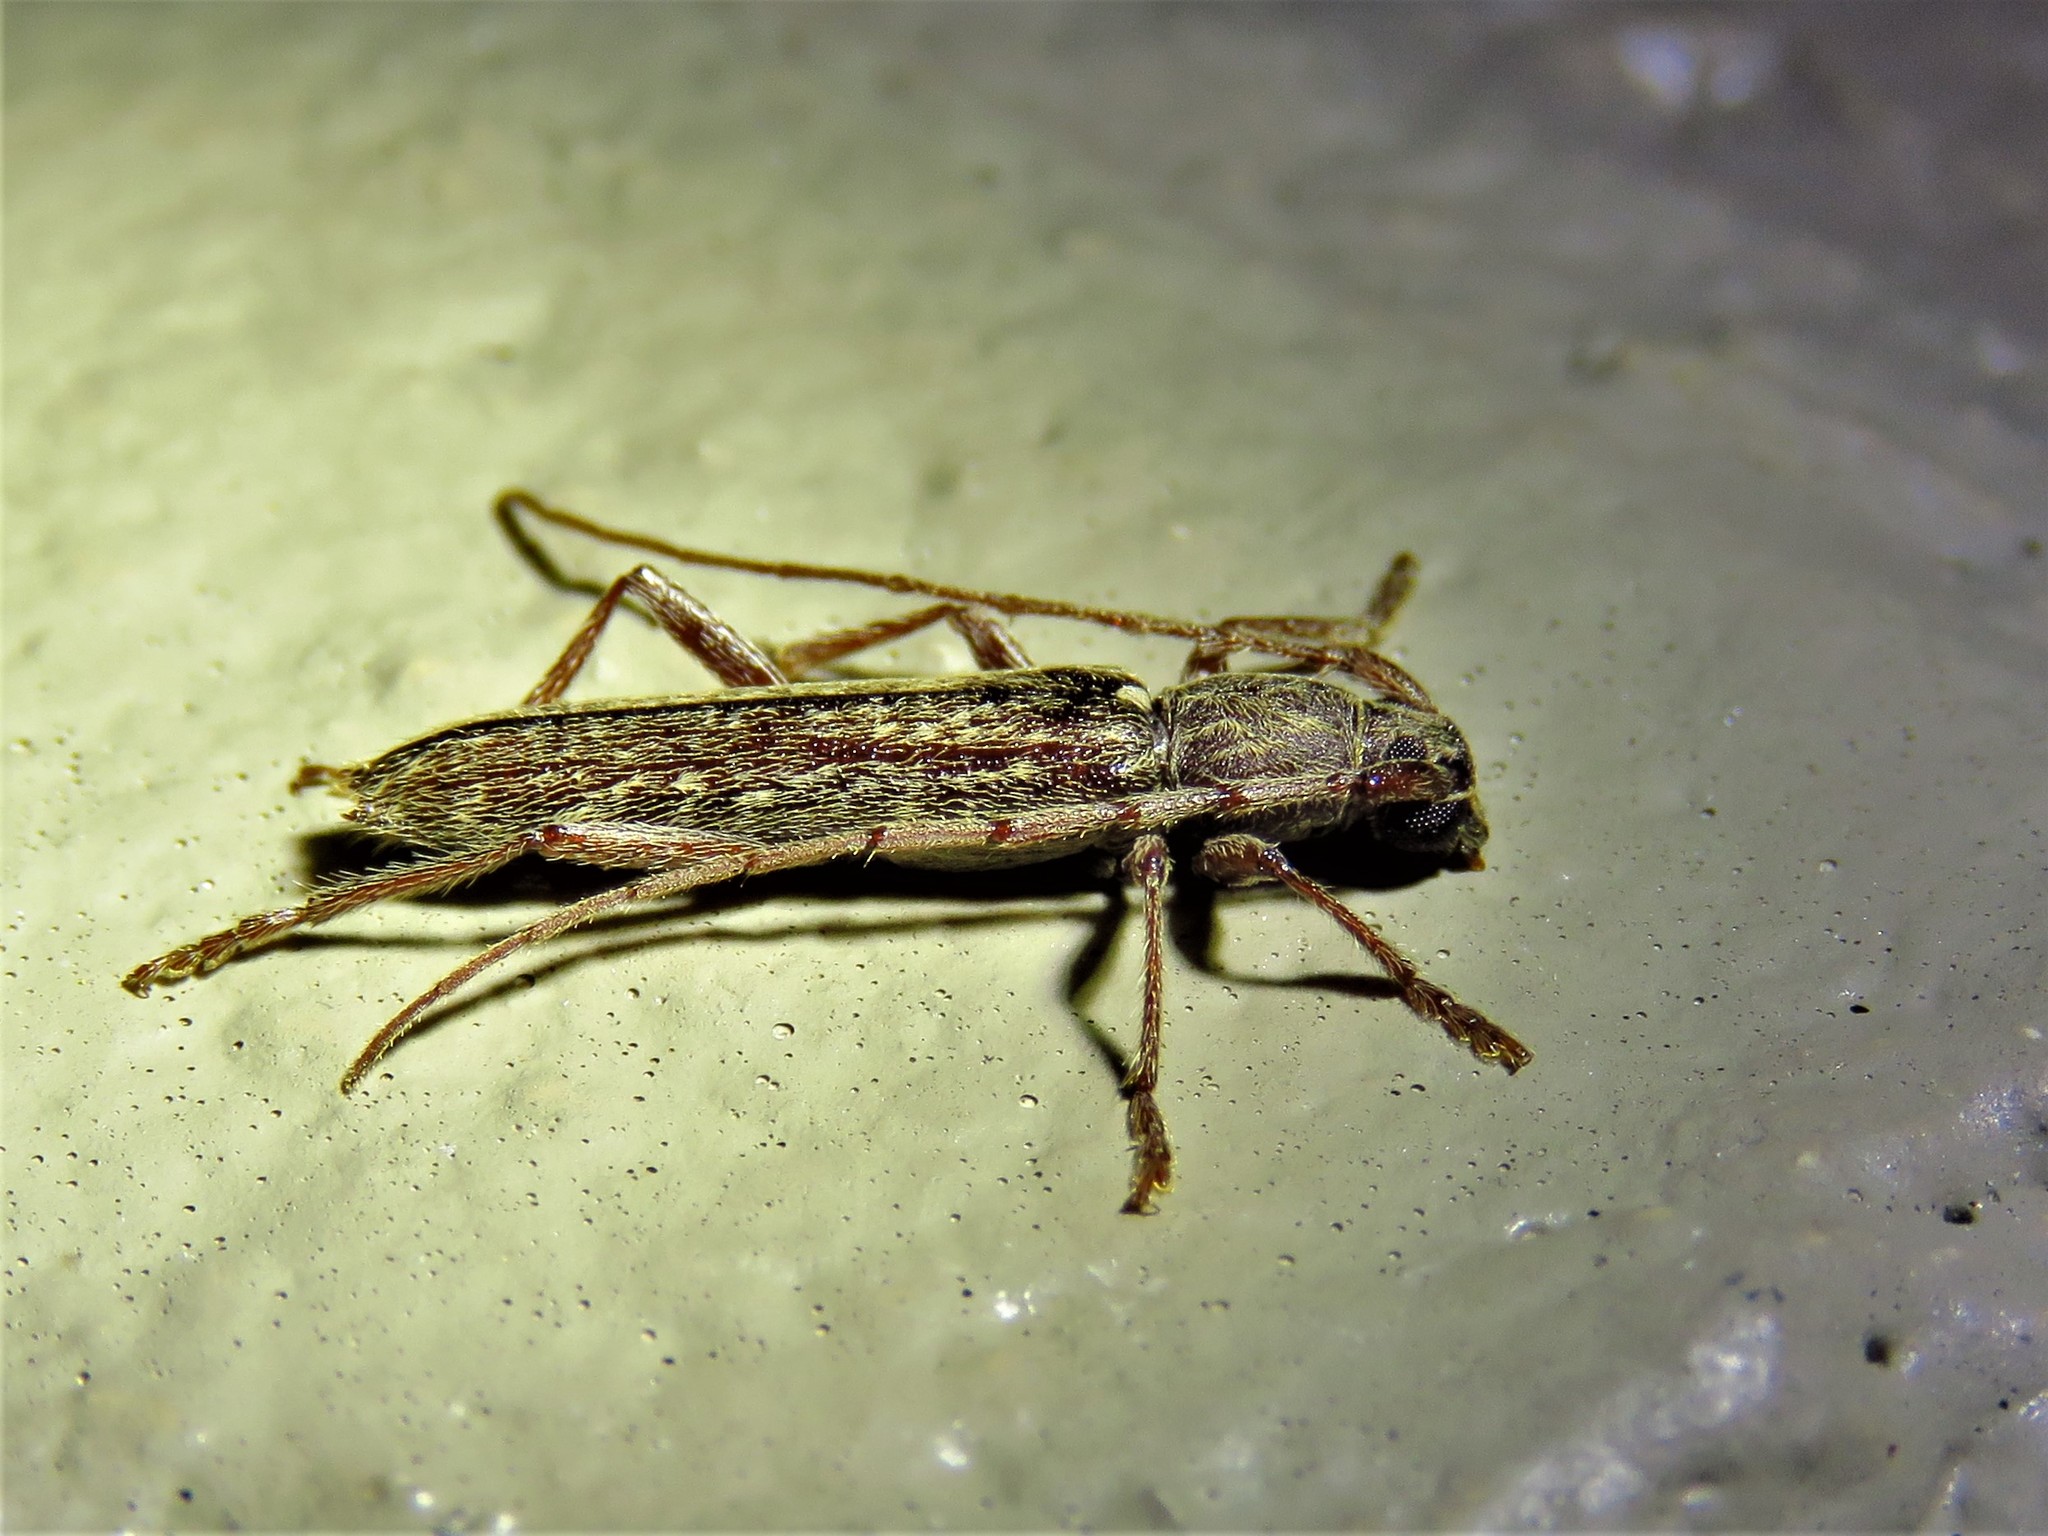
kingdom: Animalia
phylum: Arthropoda
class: Insecta
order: Coleoptera
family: Cerambycidae
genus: Anelaphus
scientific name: Anelaphus villosus
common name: Twig pruner
